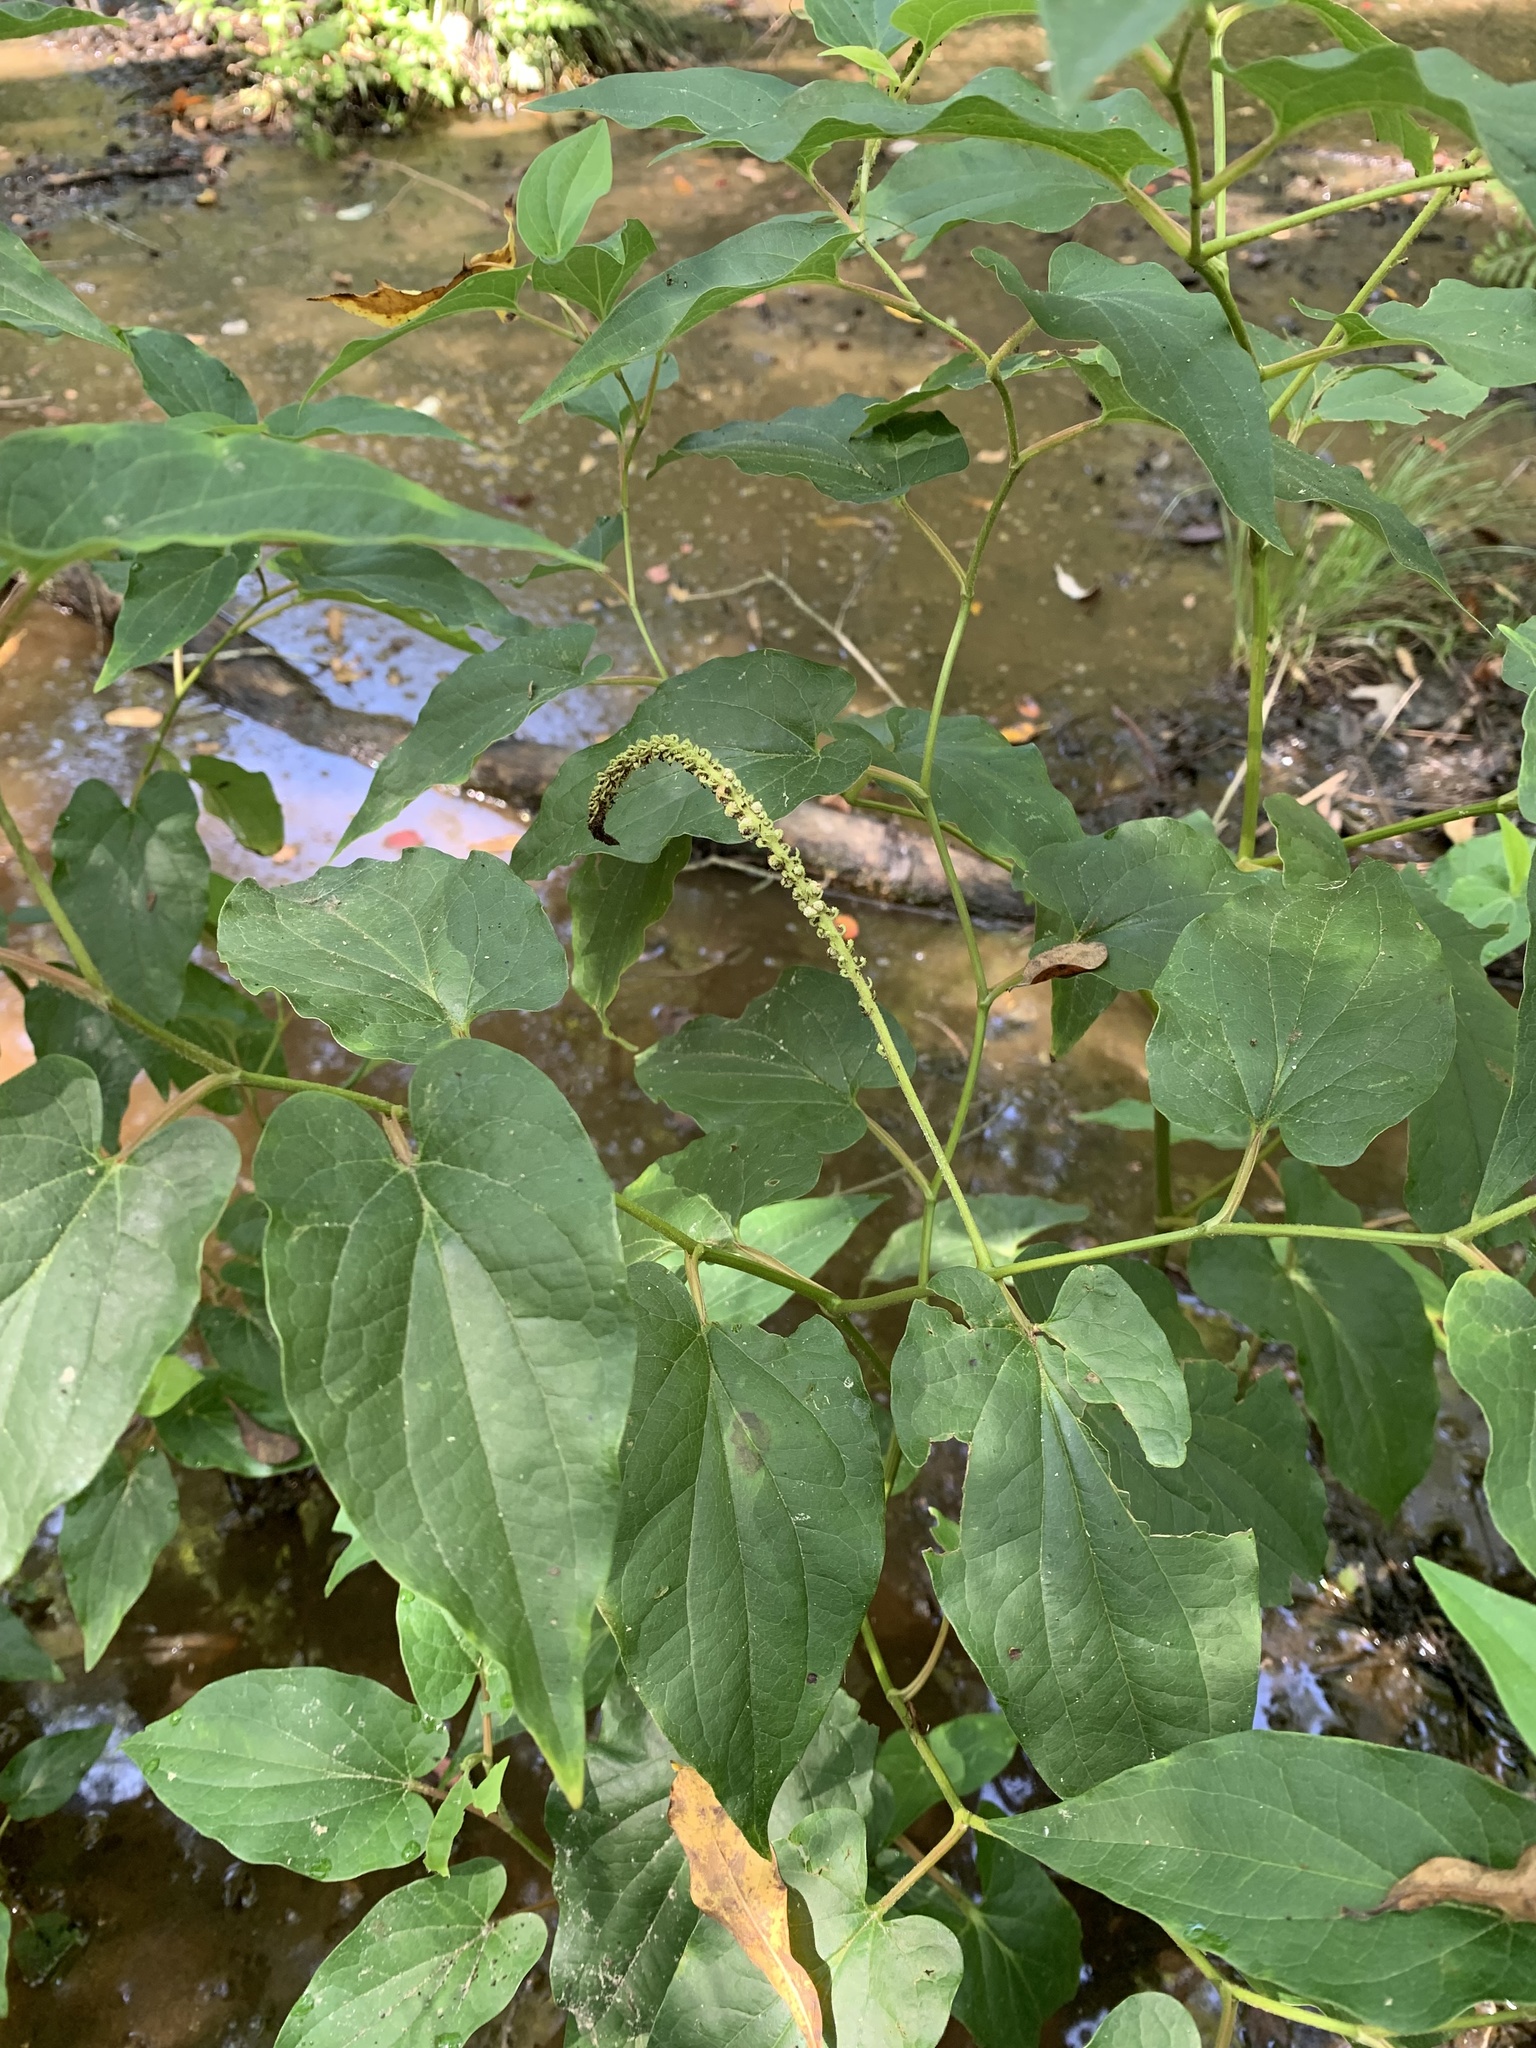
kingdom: Plantae
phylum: Tracheophyta
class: Magnoliopsida
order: Piperales
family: Saururaceae
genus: Saururus
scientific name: Saururus cernuus
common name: Lizard's-tail
